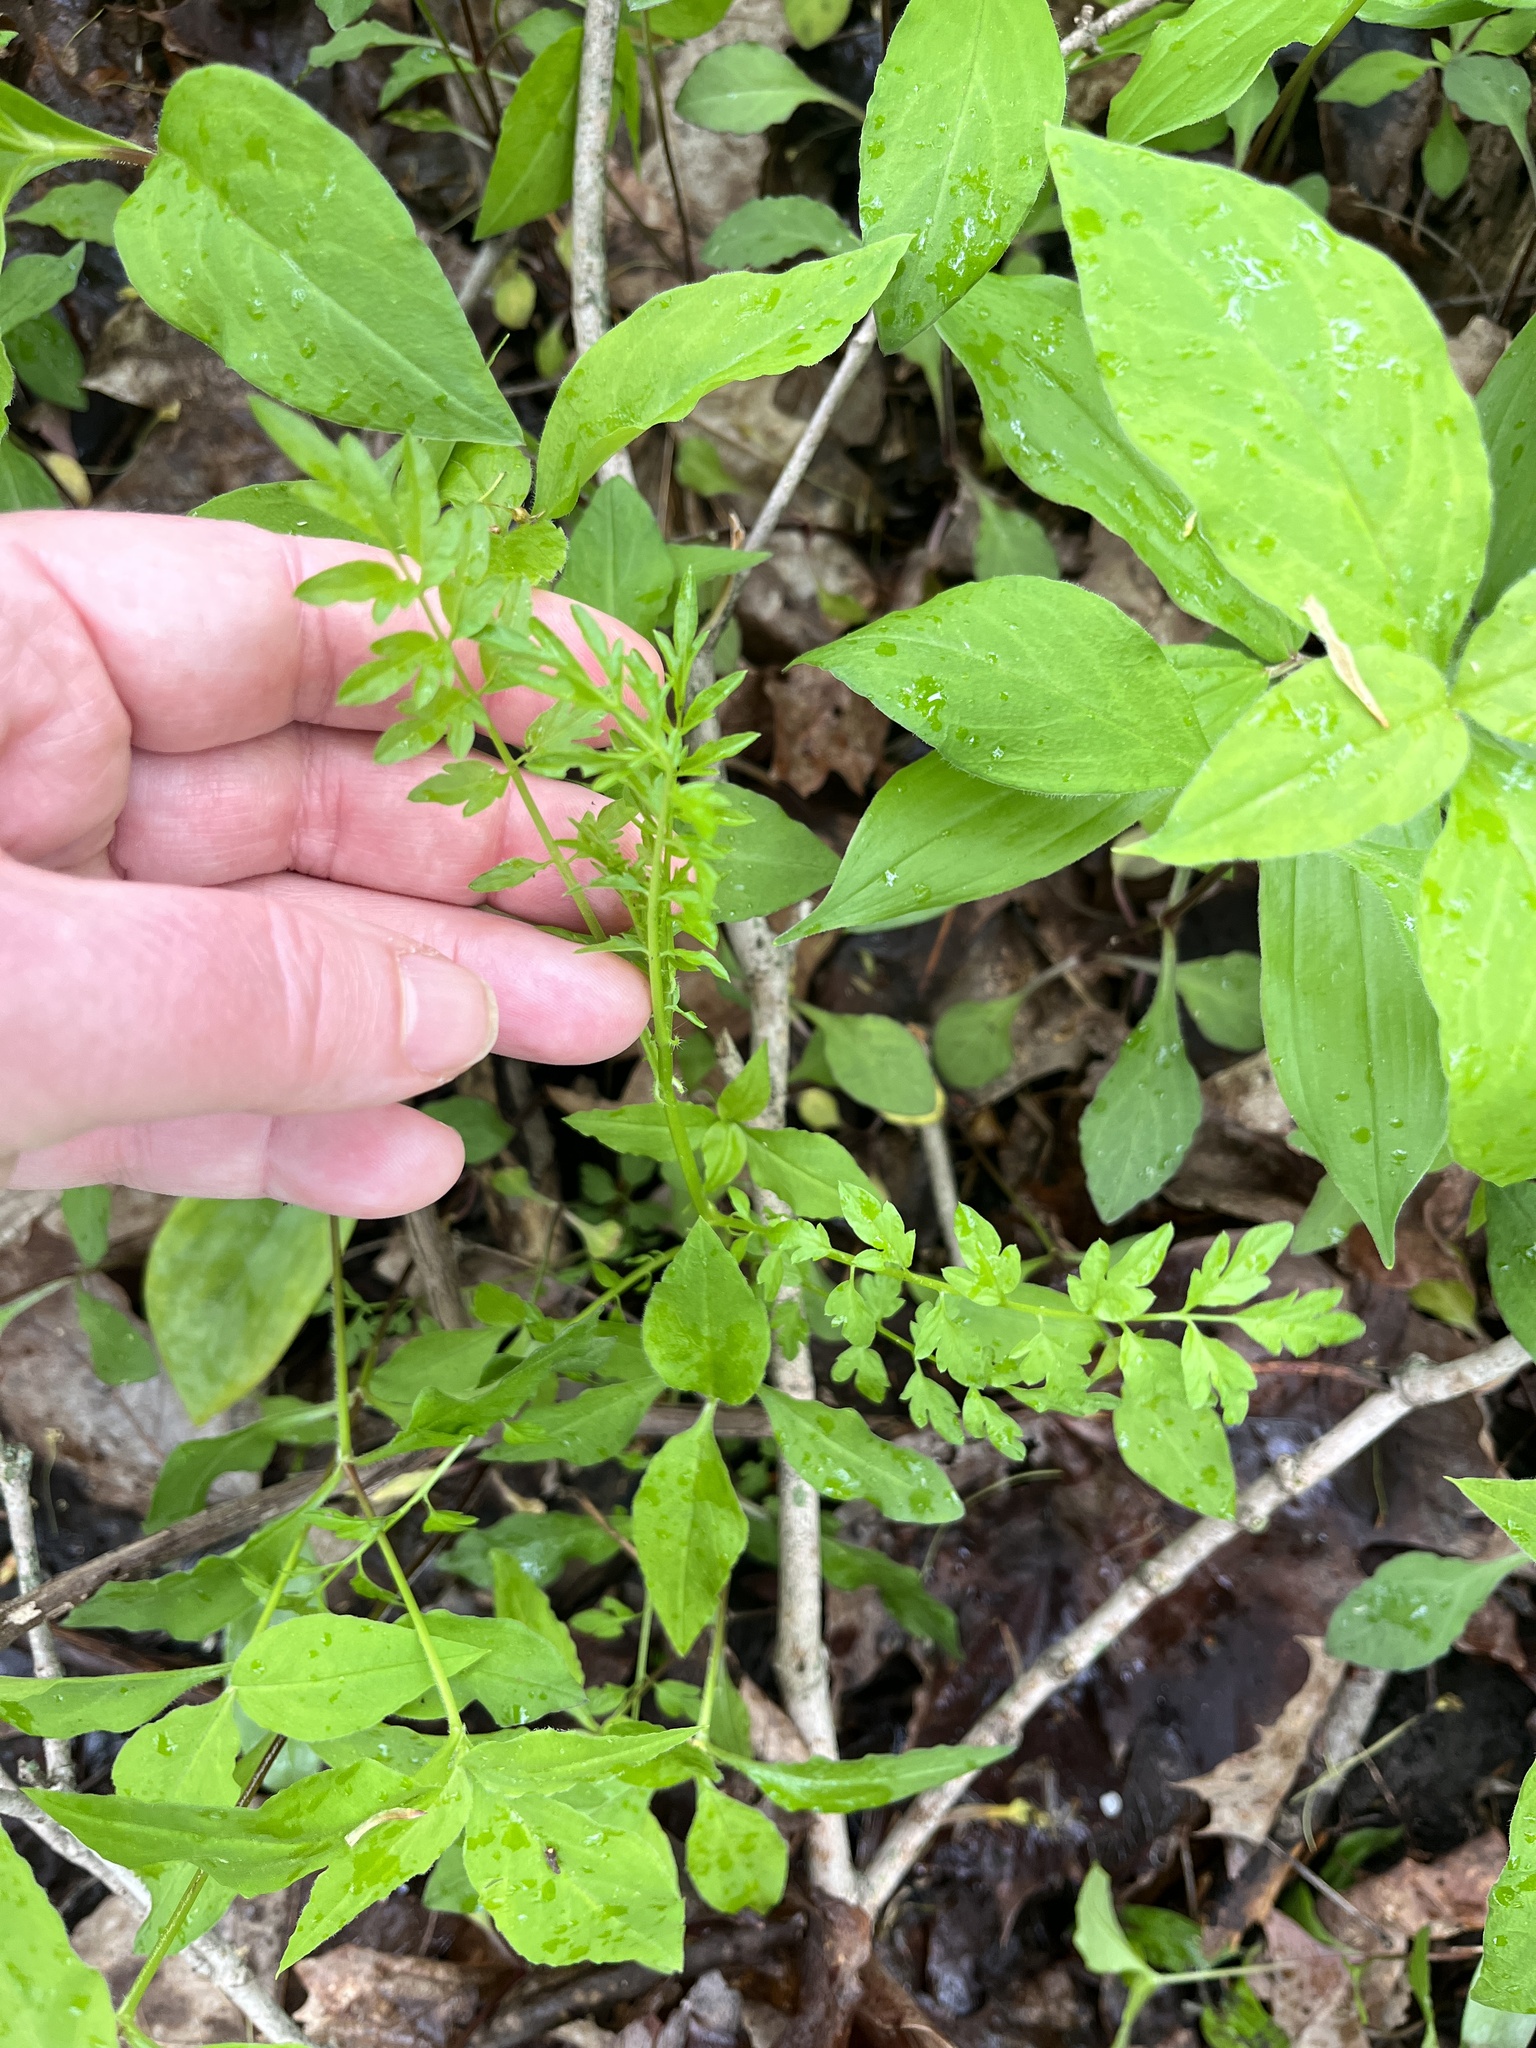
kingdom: Plantae
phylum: Tracheophyta
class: Magnoliopsida
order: Brassicales
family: Brassicaceae
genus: Cardamine
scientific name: Cardamine impatiens
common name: Narrow-leaved bitter-cress
